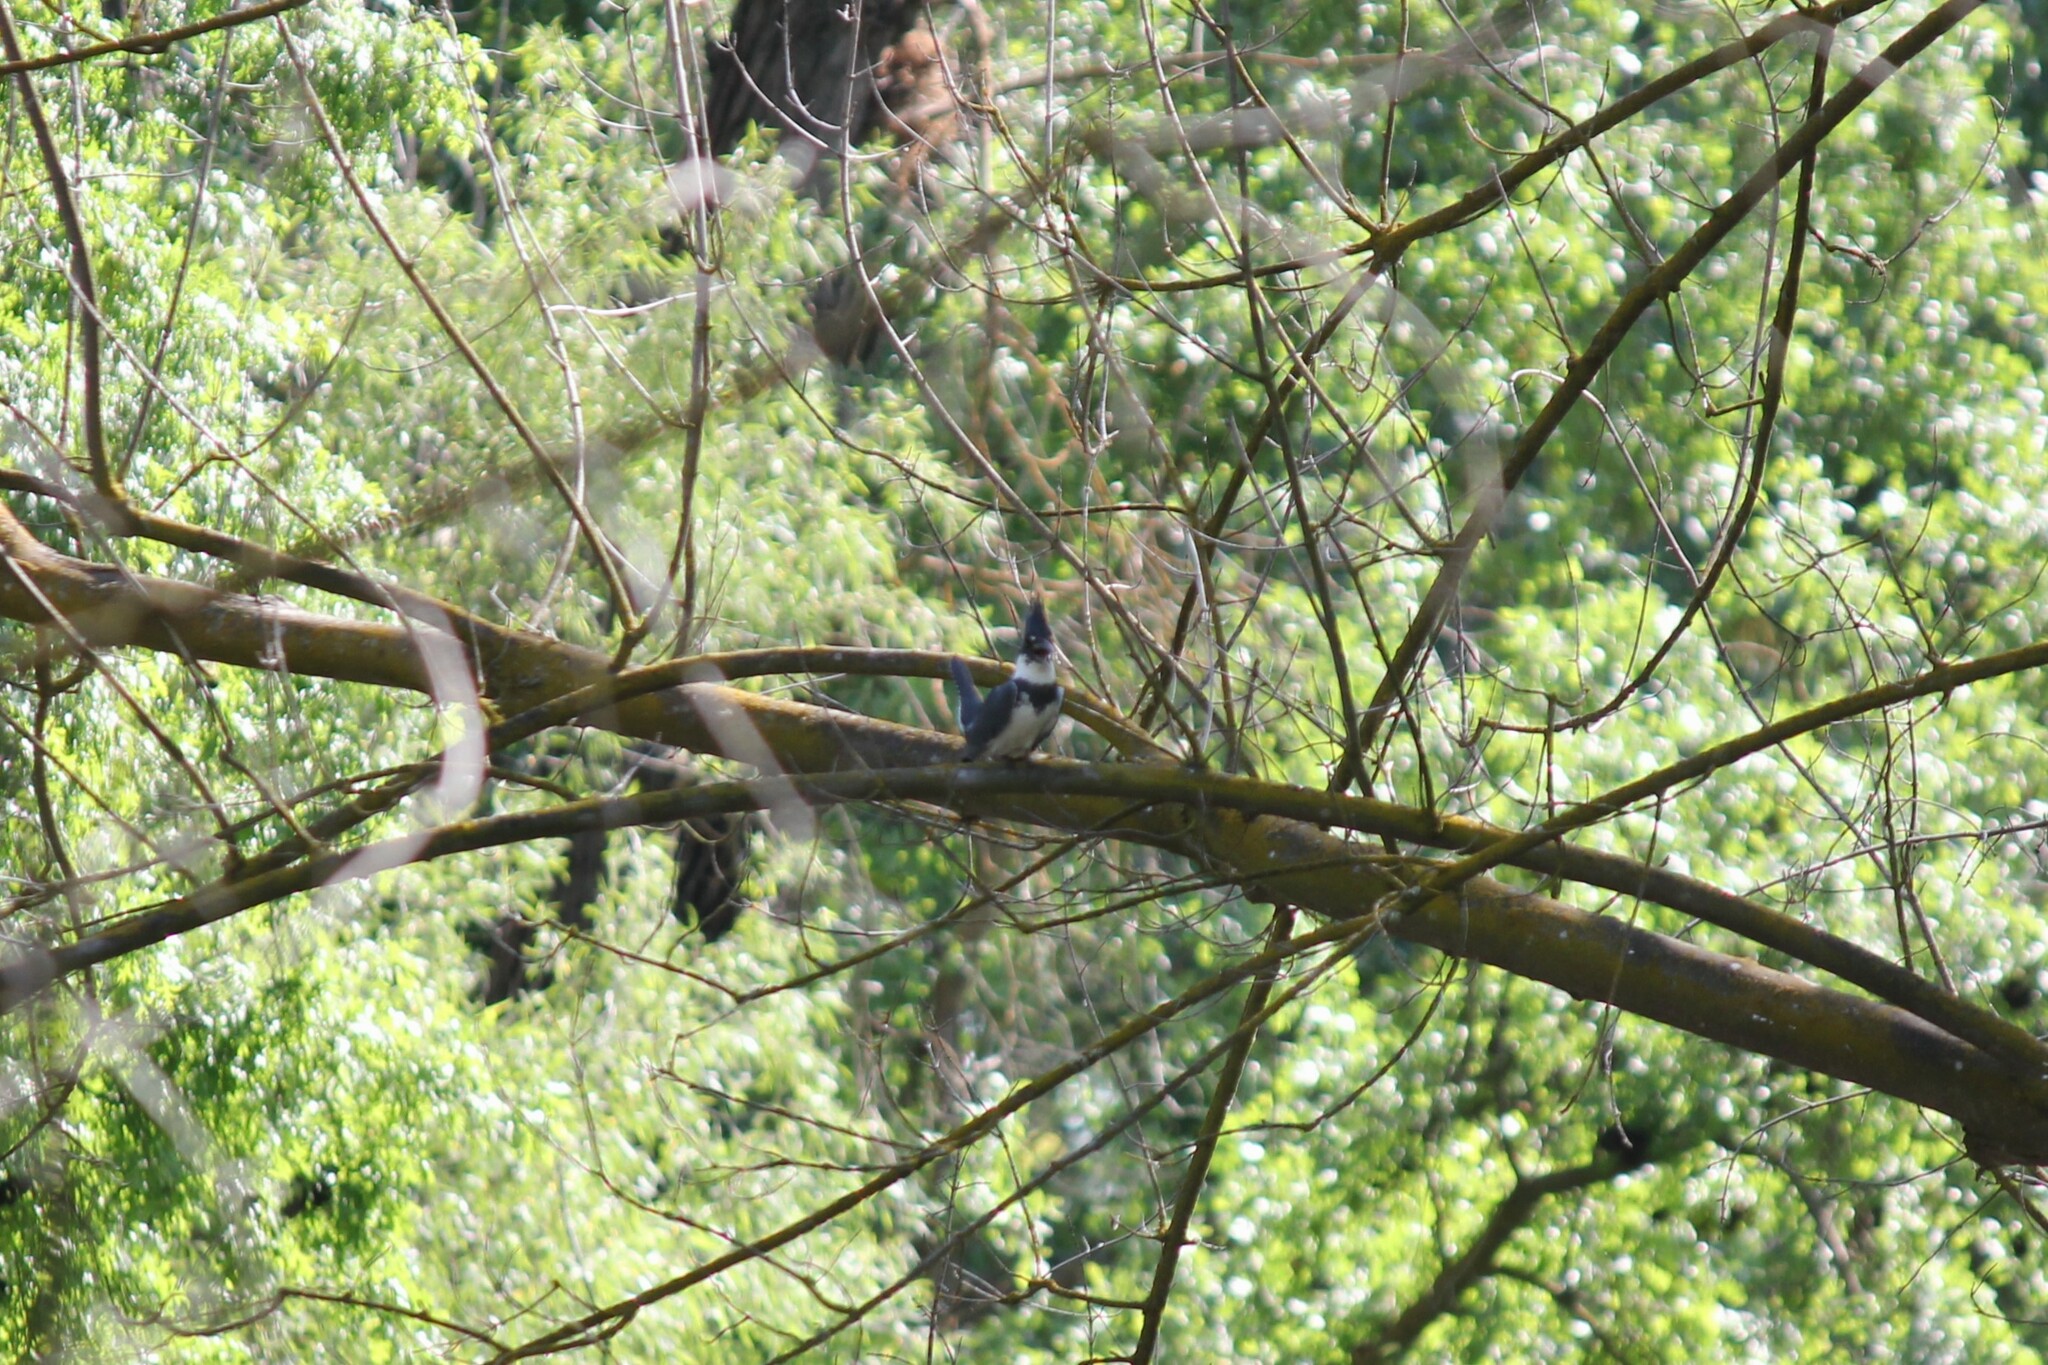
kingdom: Animalia
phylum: Chordata
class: Aves
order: Coraciiformes
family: Alcedinidae
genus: Megaceryle
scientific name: Megaceryle alcyon
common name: Belted kingfisher
